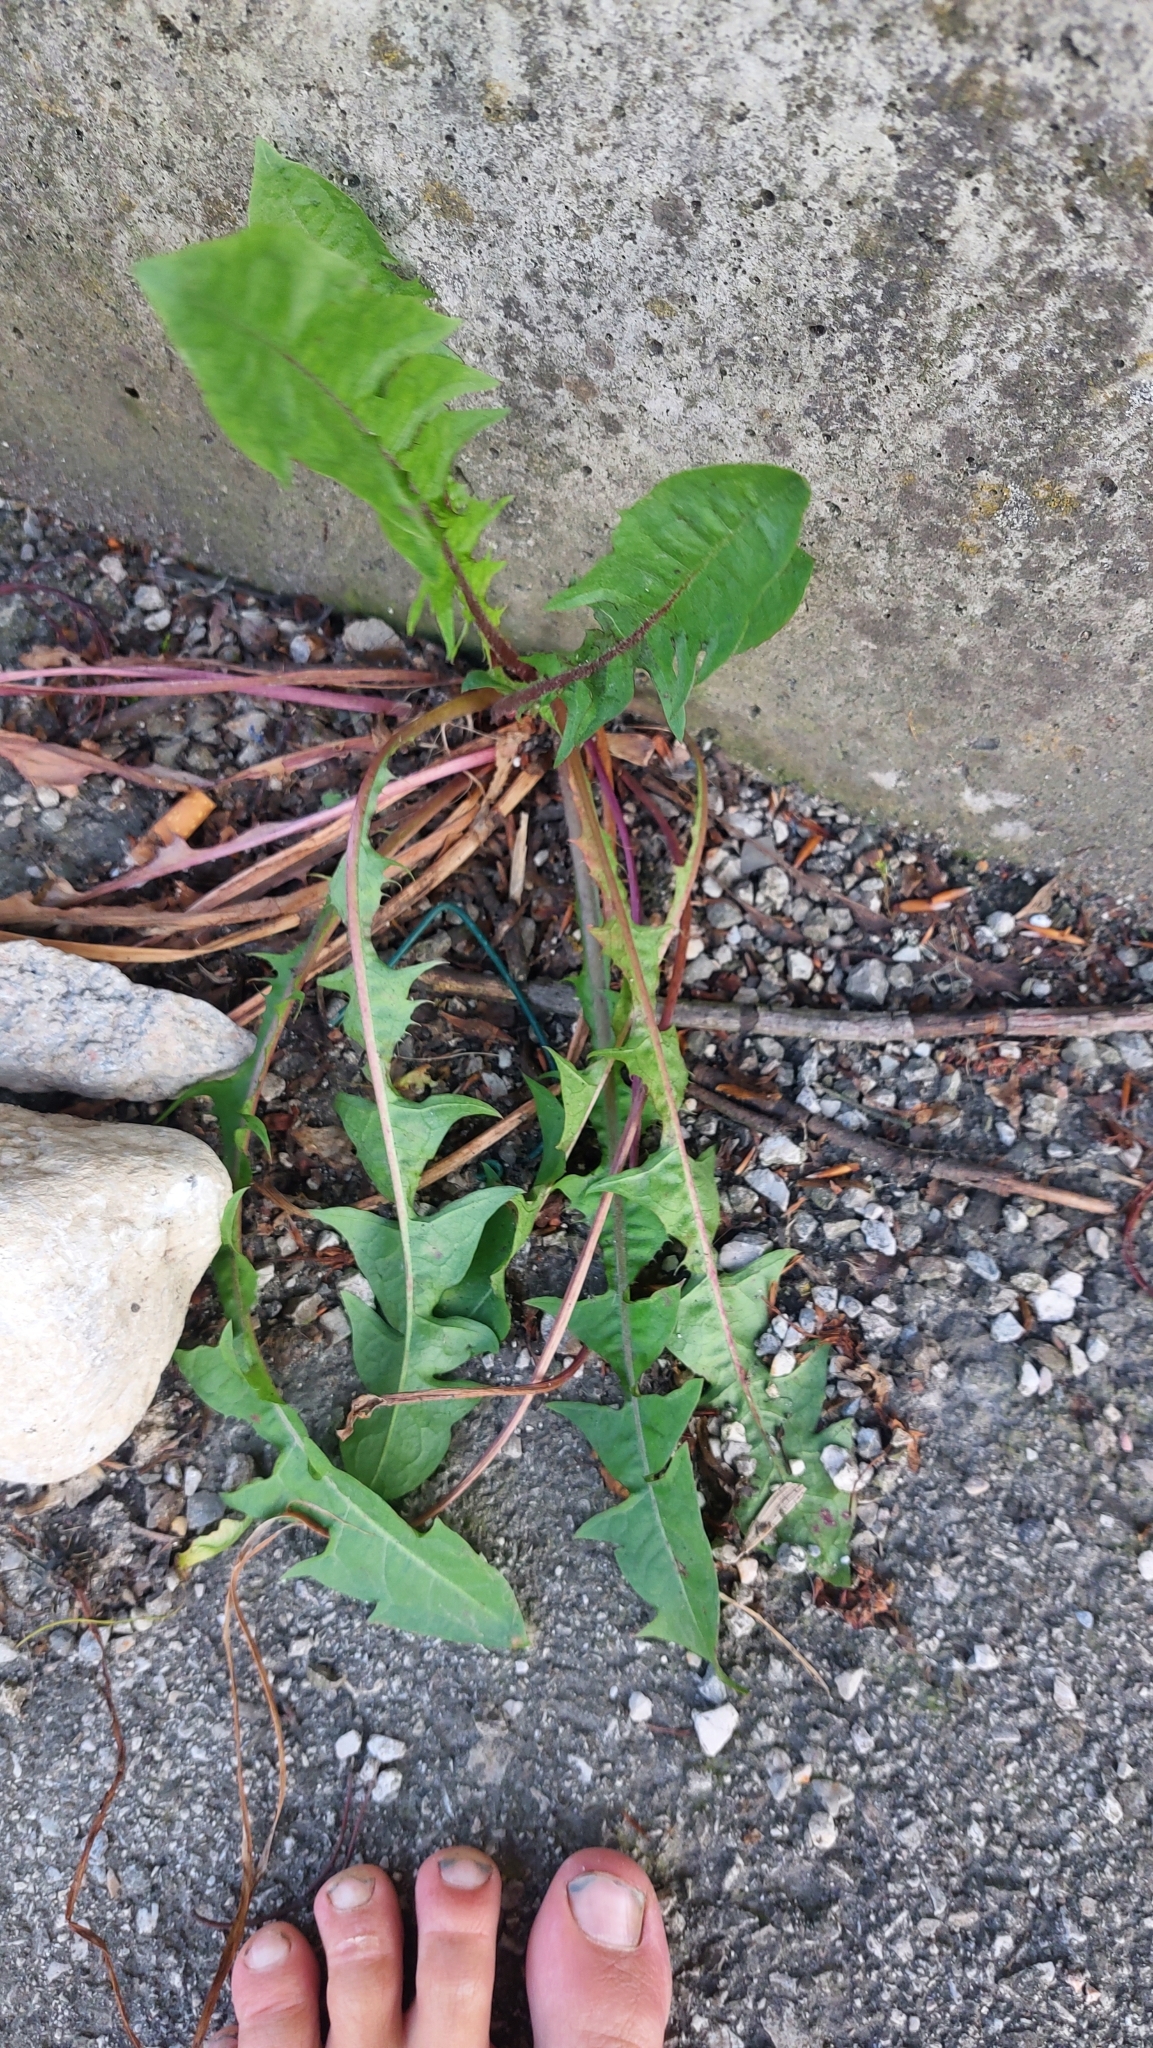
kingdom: Plantae
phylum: Tracheophyta
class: Magnoliopsida
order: Asterales
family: Asteraceae
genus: Taraxacum
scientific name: Taraxacum
